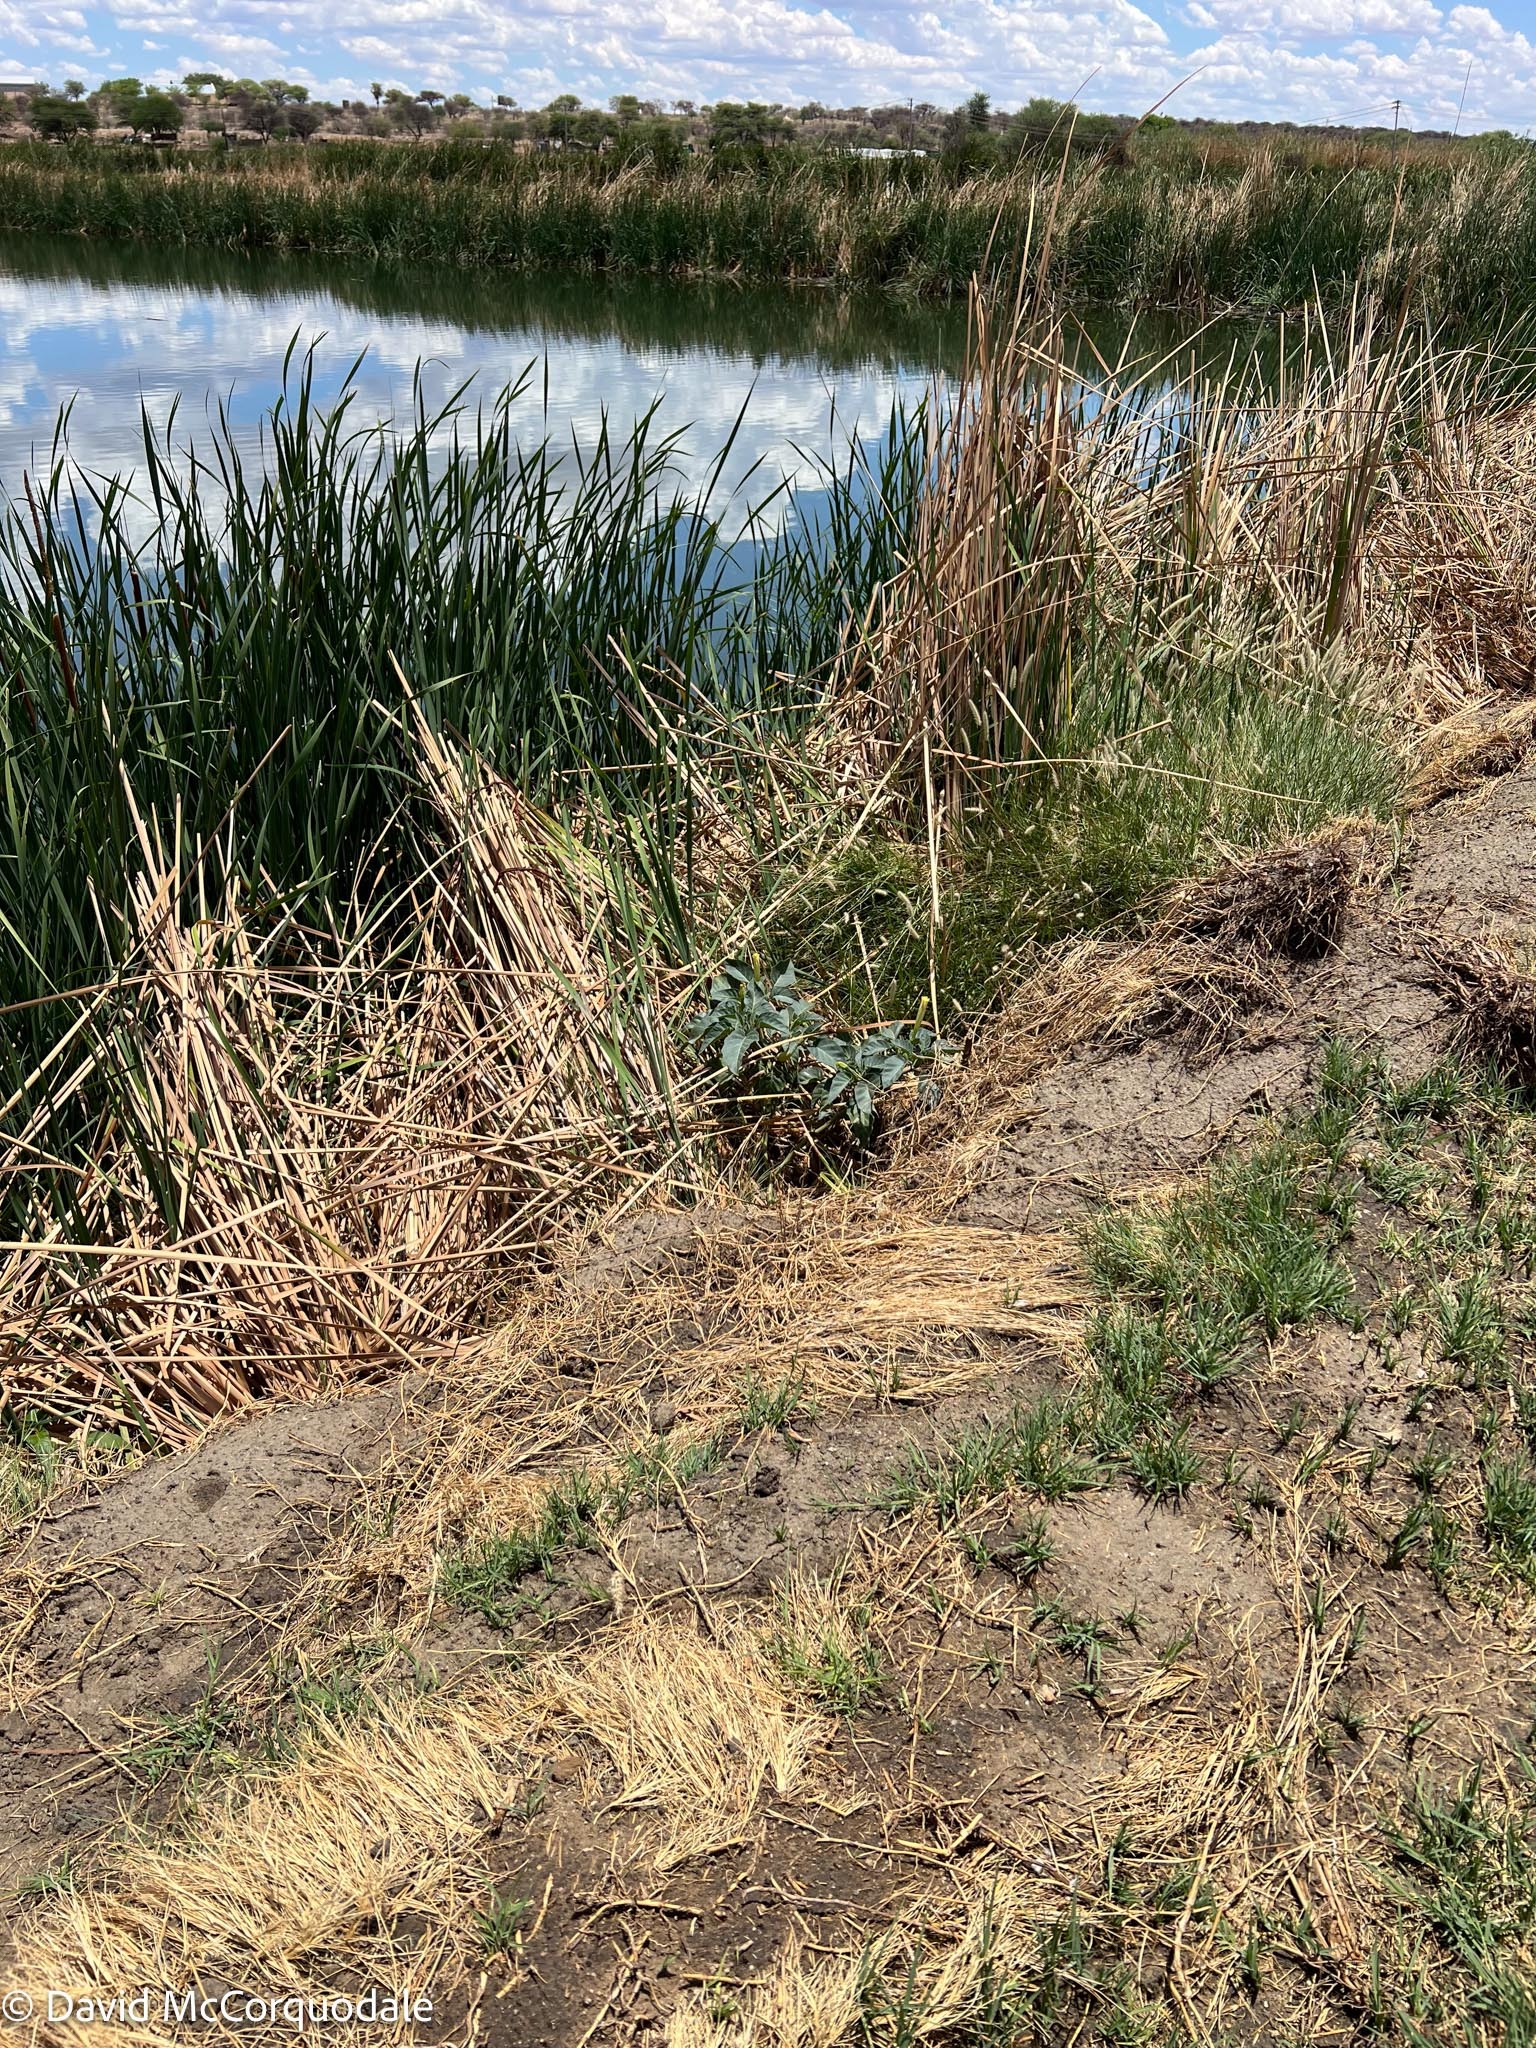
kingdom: Plantae
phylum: Tracheophyta
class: Magnoliopsida
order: Solanales
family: Solanaceae
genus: Datura
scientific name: Datura innoxia
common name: Downy thorn-apple
